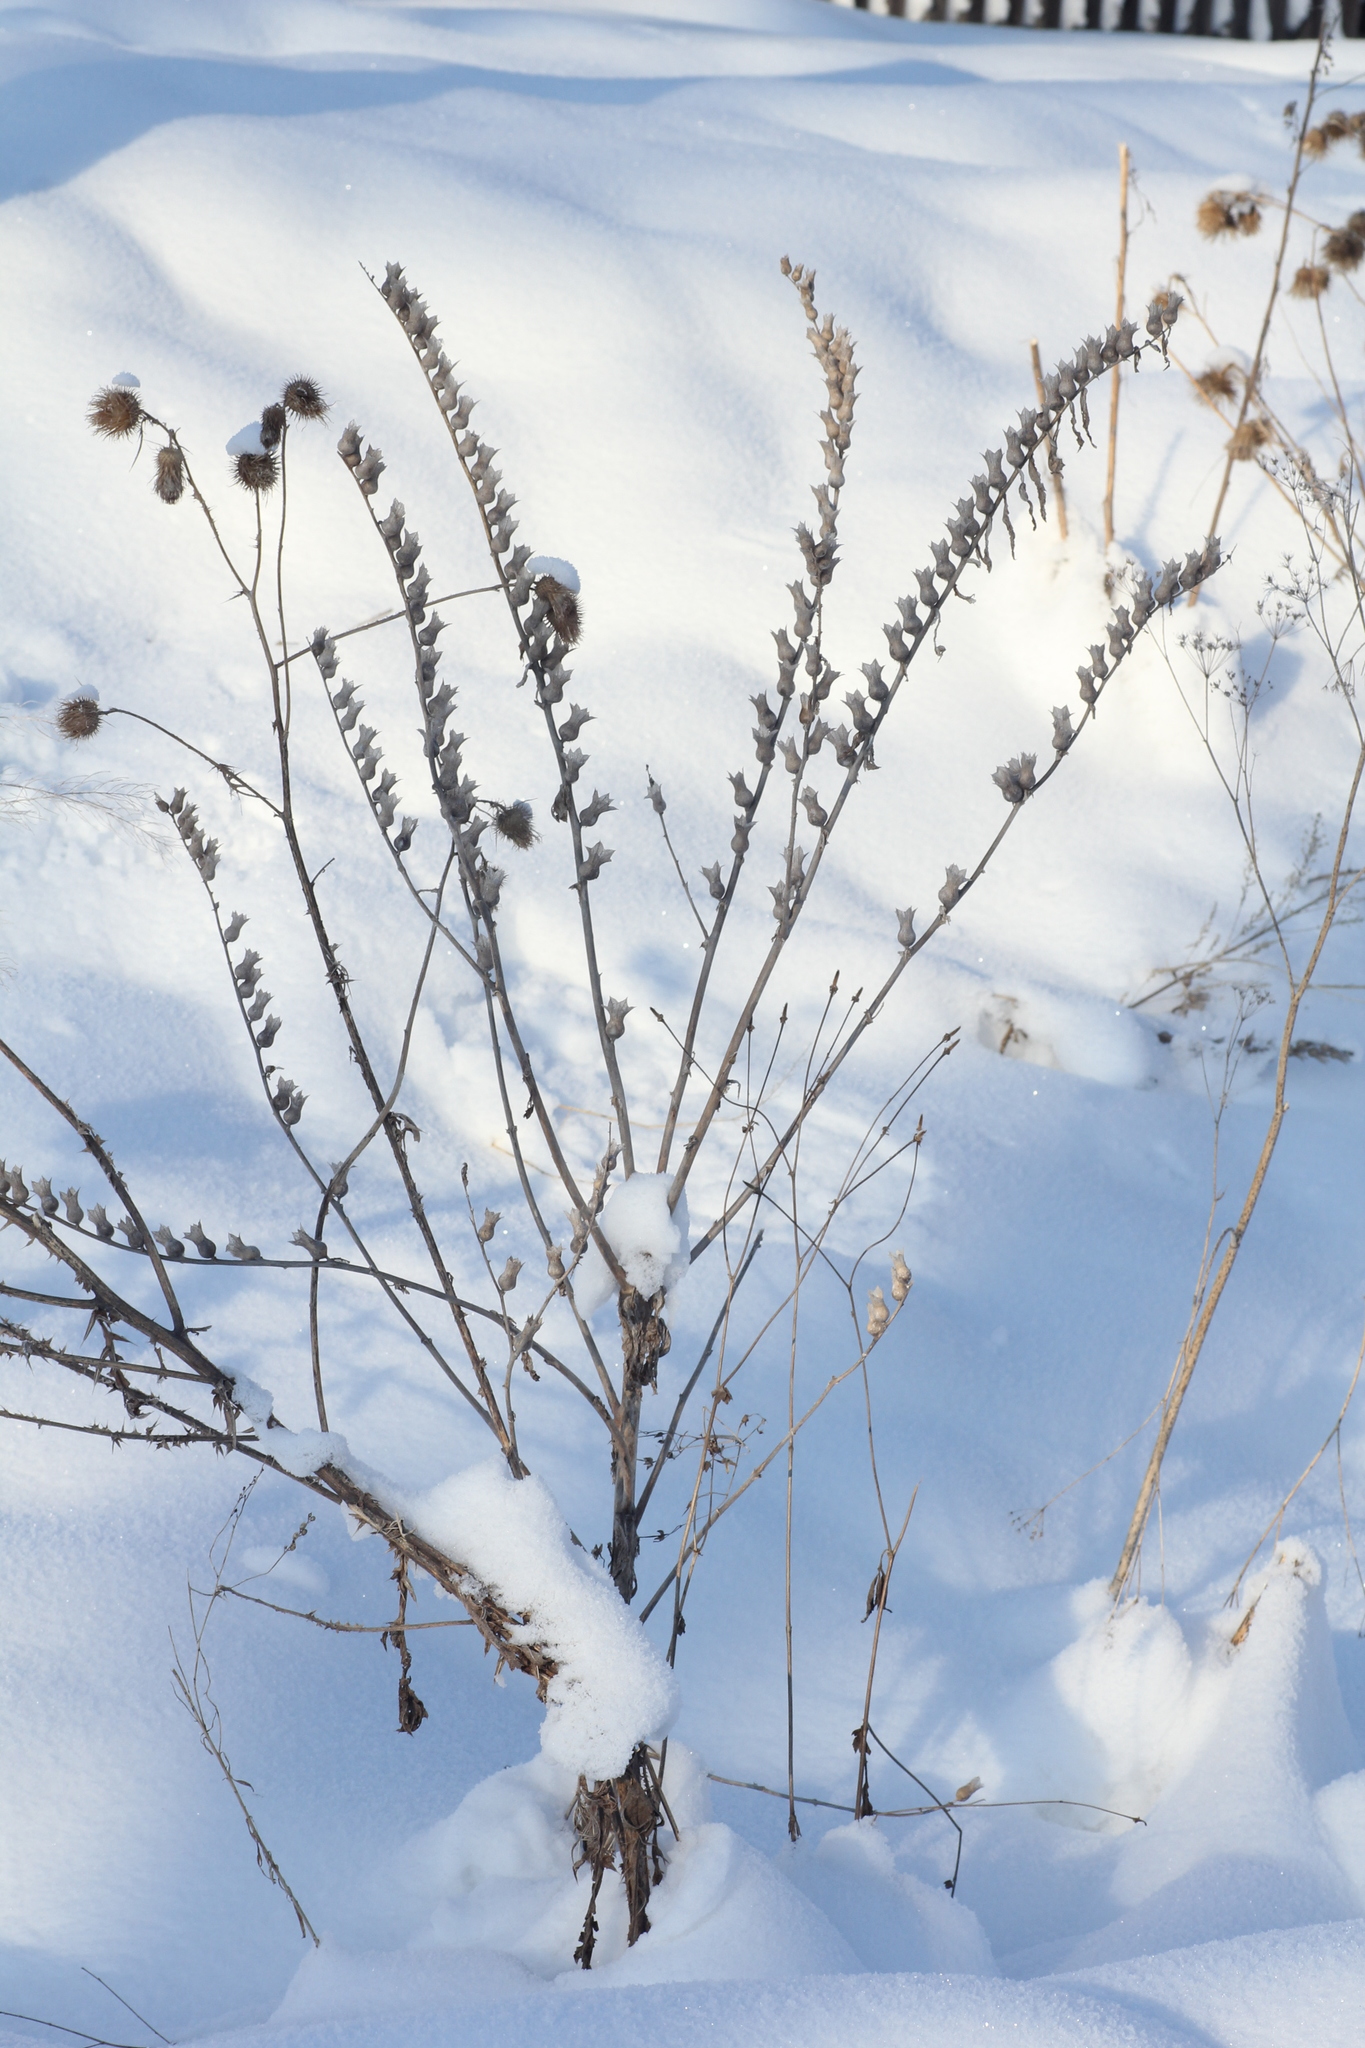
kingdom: Plantae
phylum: Tracheophyta
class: Magnoliopsida
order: Solanales
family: Solanaceae
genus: Hyoscyamus
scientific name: Hyoscyamus niger
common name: Henbane
